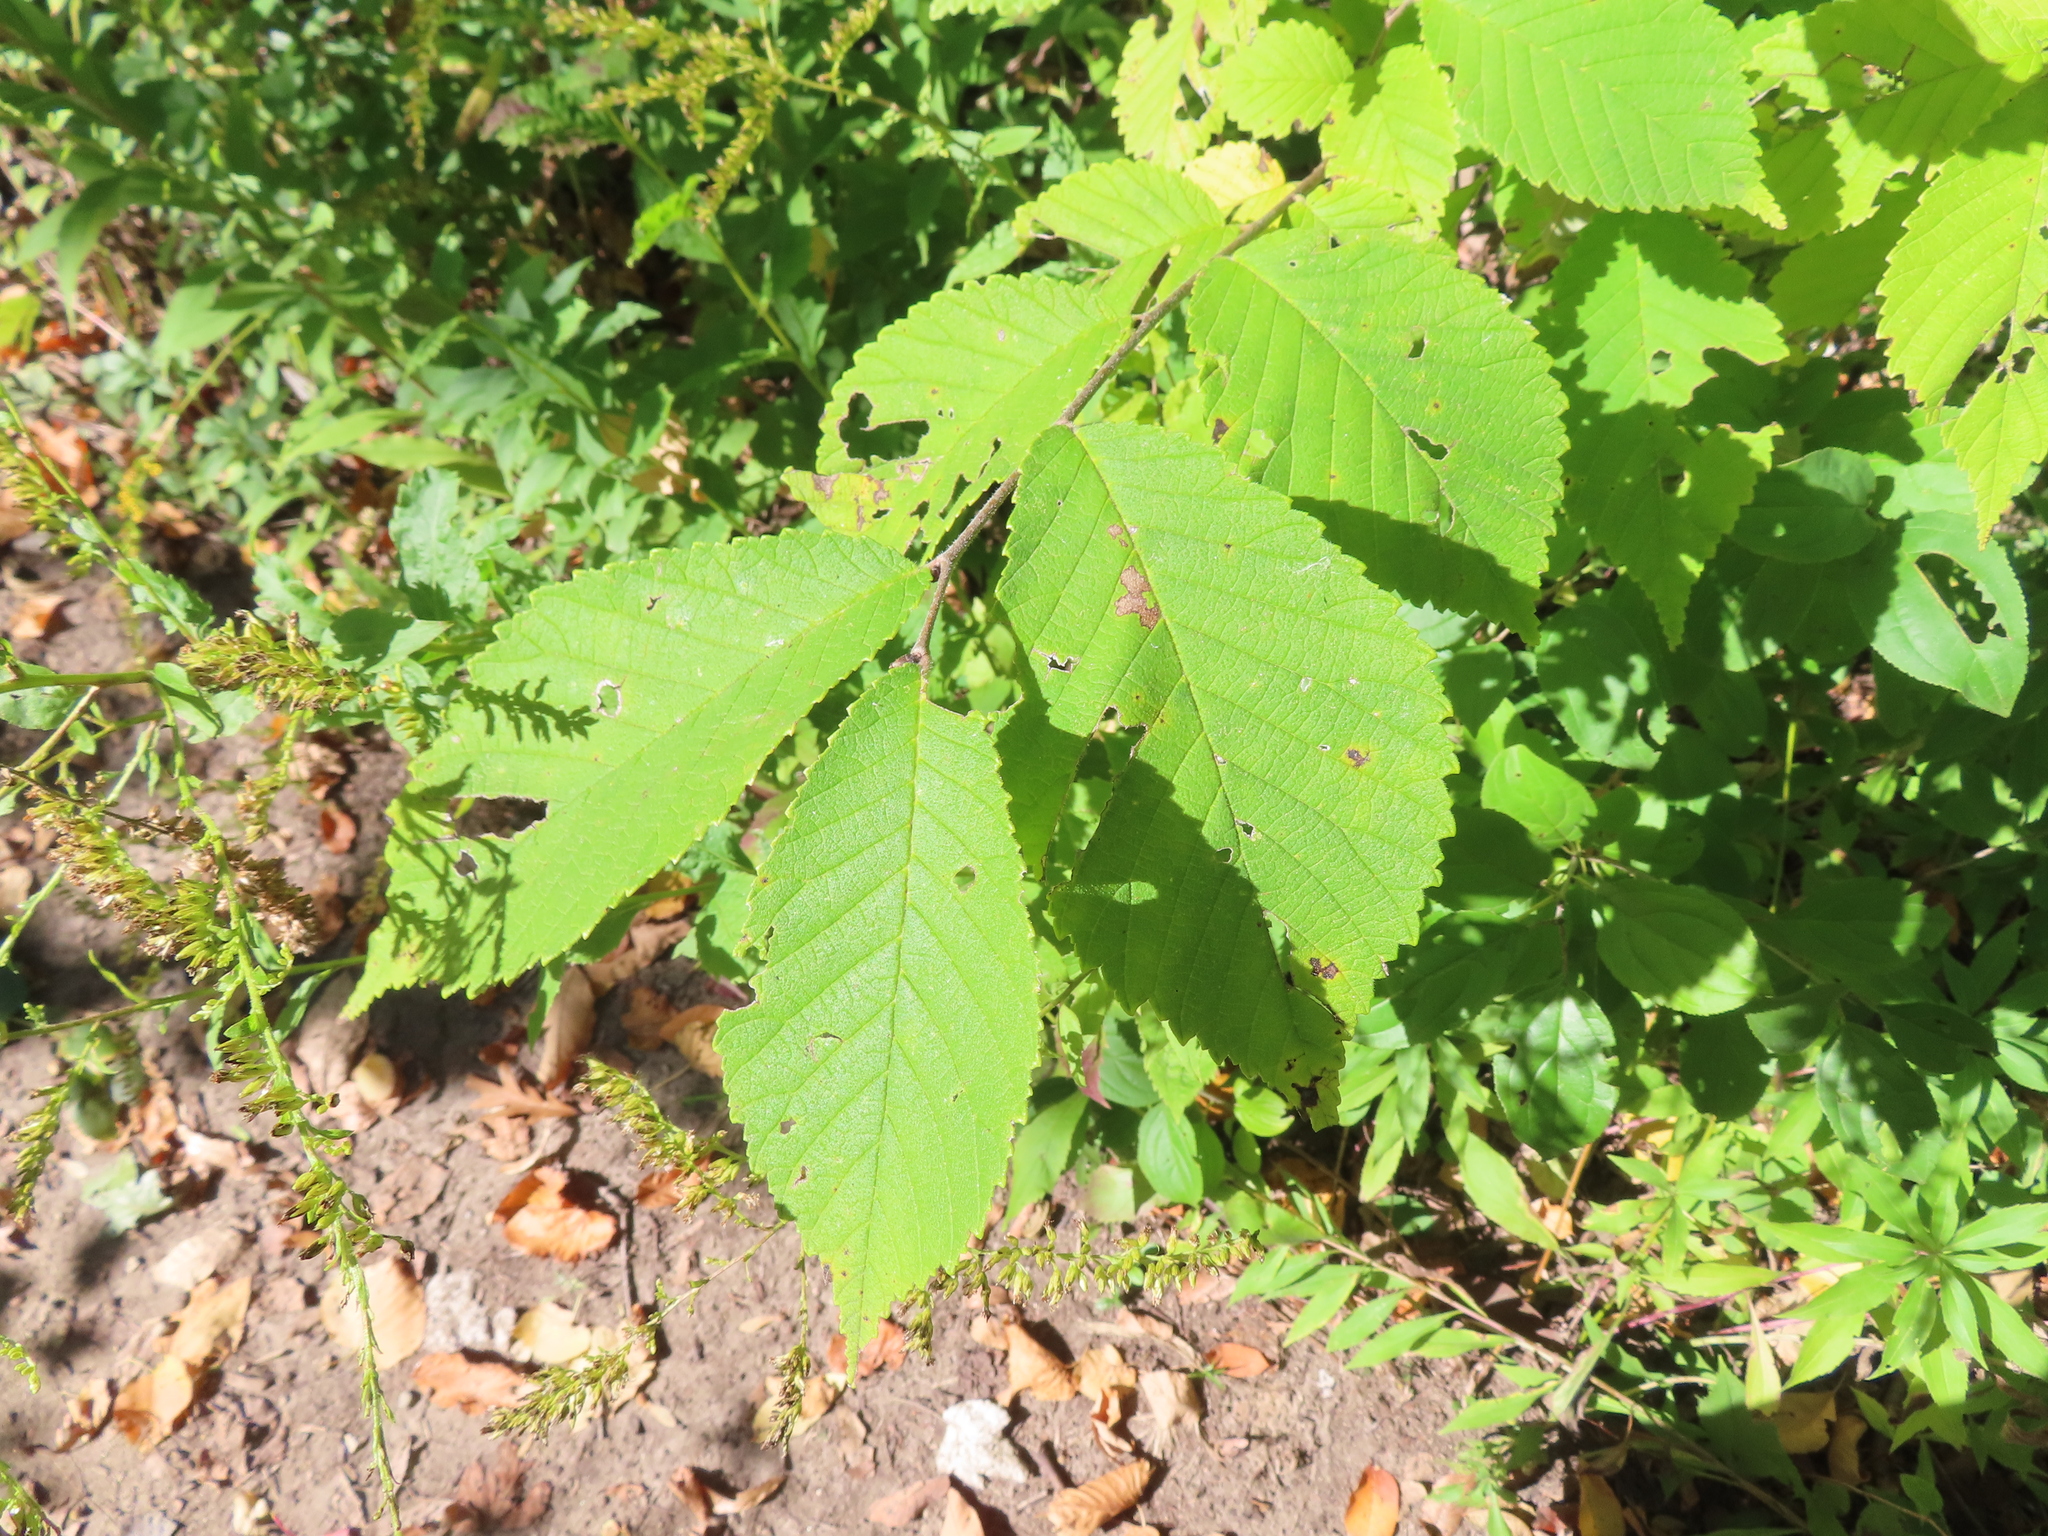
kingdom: Plantae
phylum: Tracheophyta
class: Magnoliopsida
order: Rosales
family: Ulmaceae
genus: Ulmus
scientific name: Ulmus rubra
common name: Slippery elm
